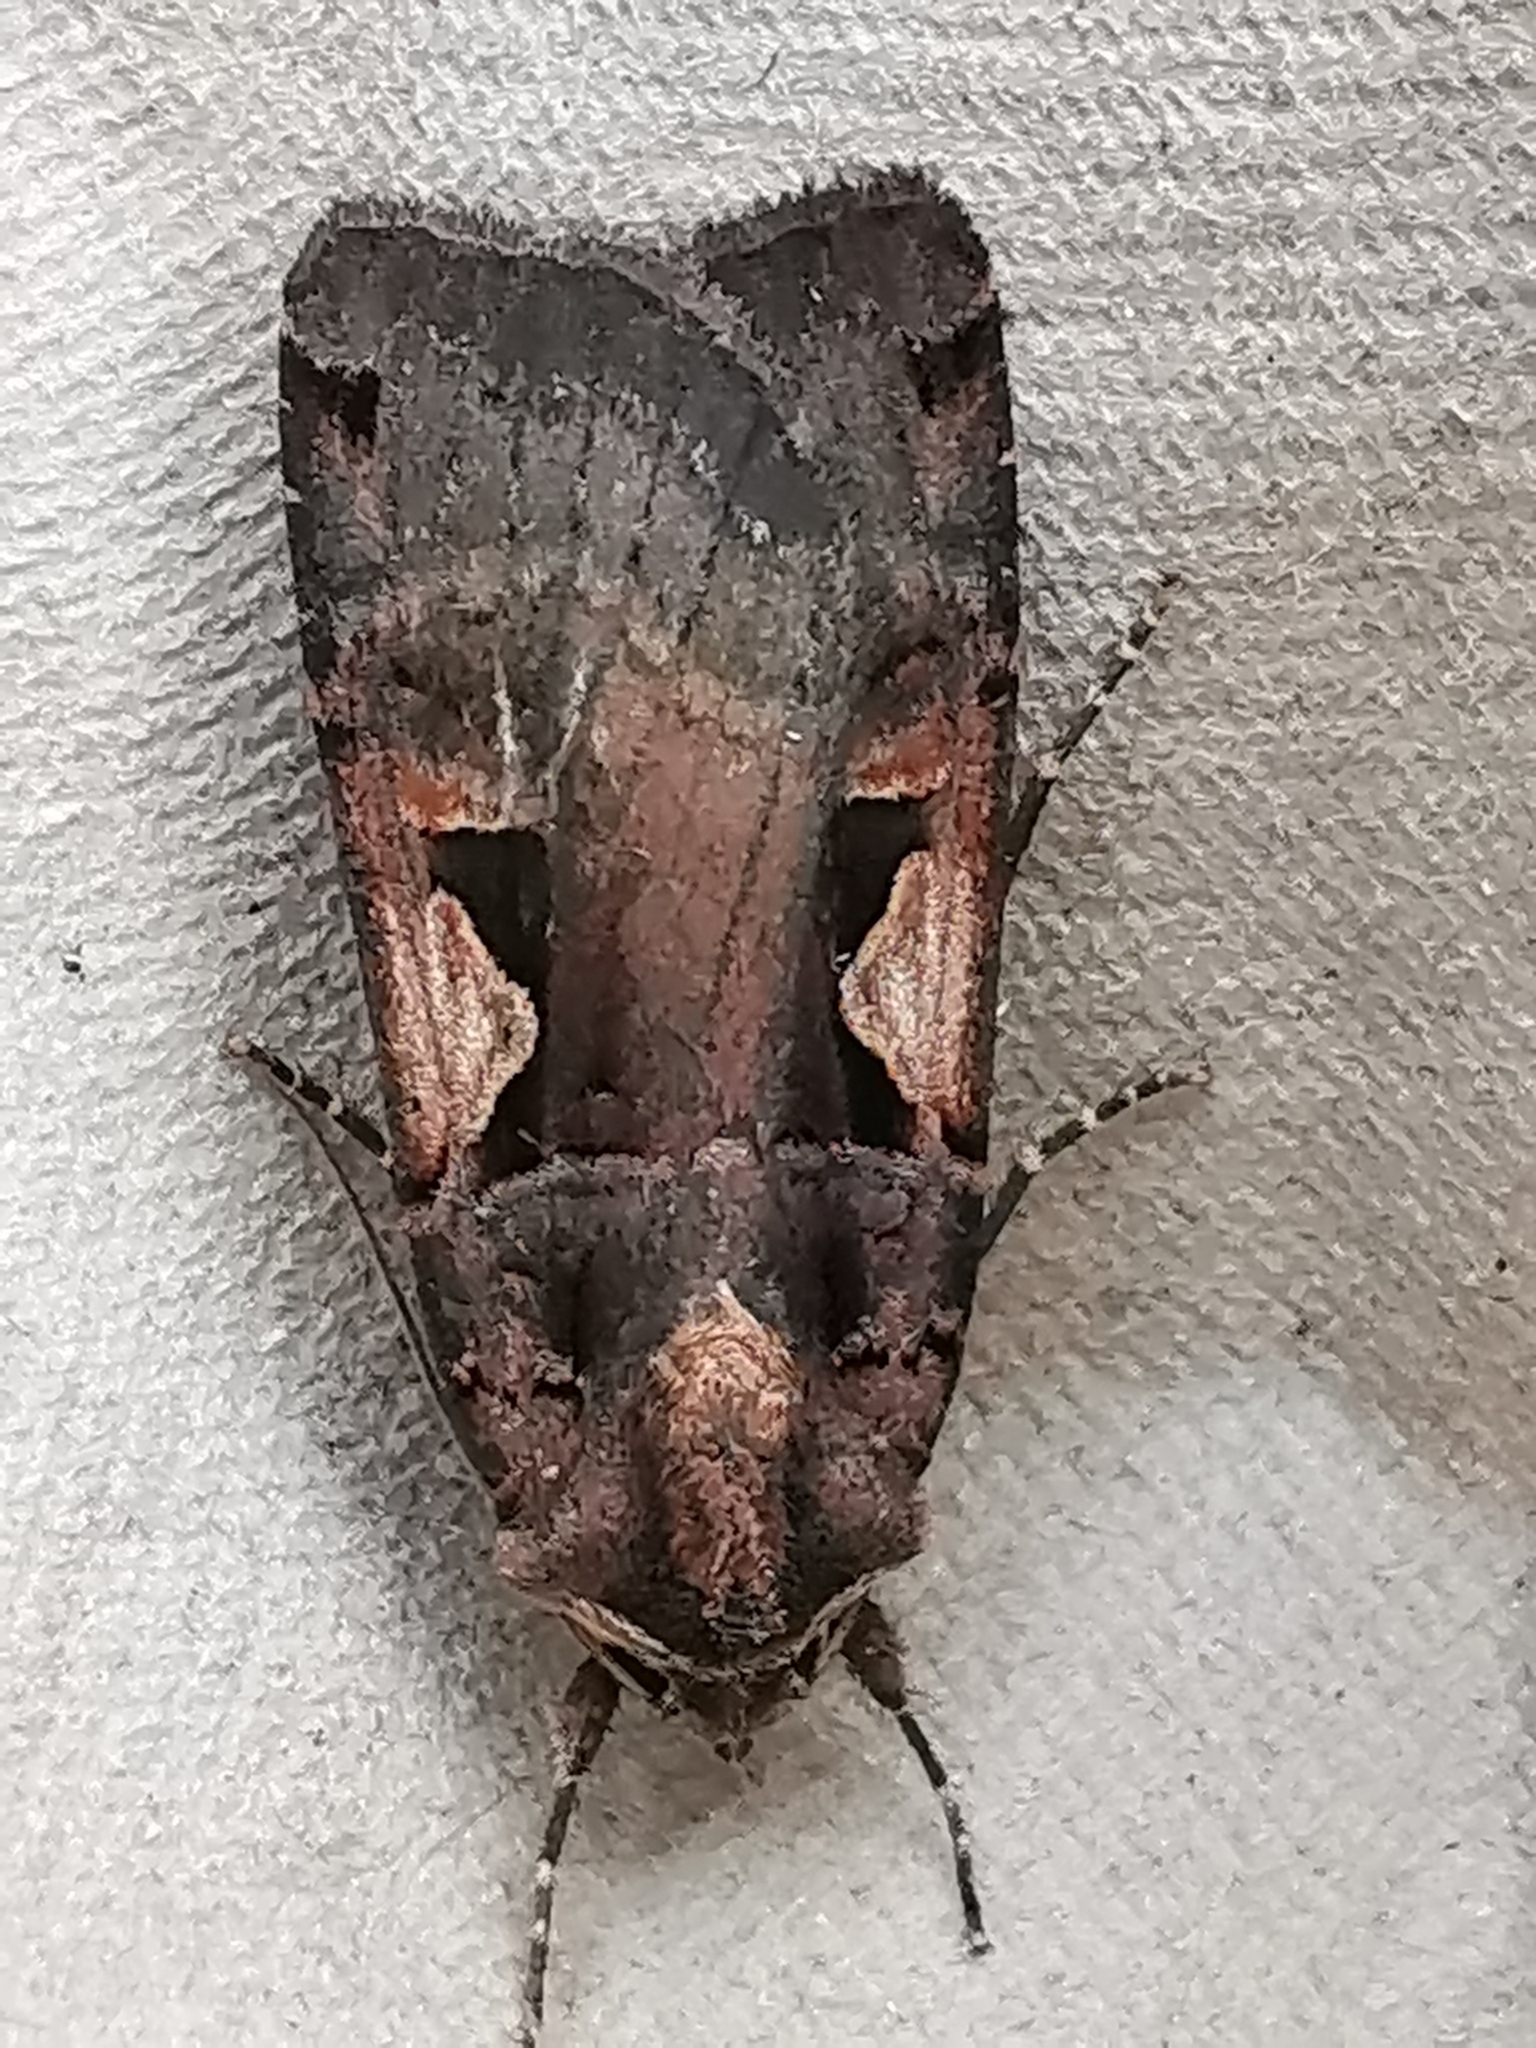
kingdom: Animalia
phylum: Arthropoda
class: Insecta
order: Lepidoptera
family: Noctuidae
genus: Xestia
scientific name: Xestia c-nigrum
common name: Setaceous hebrew character
